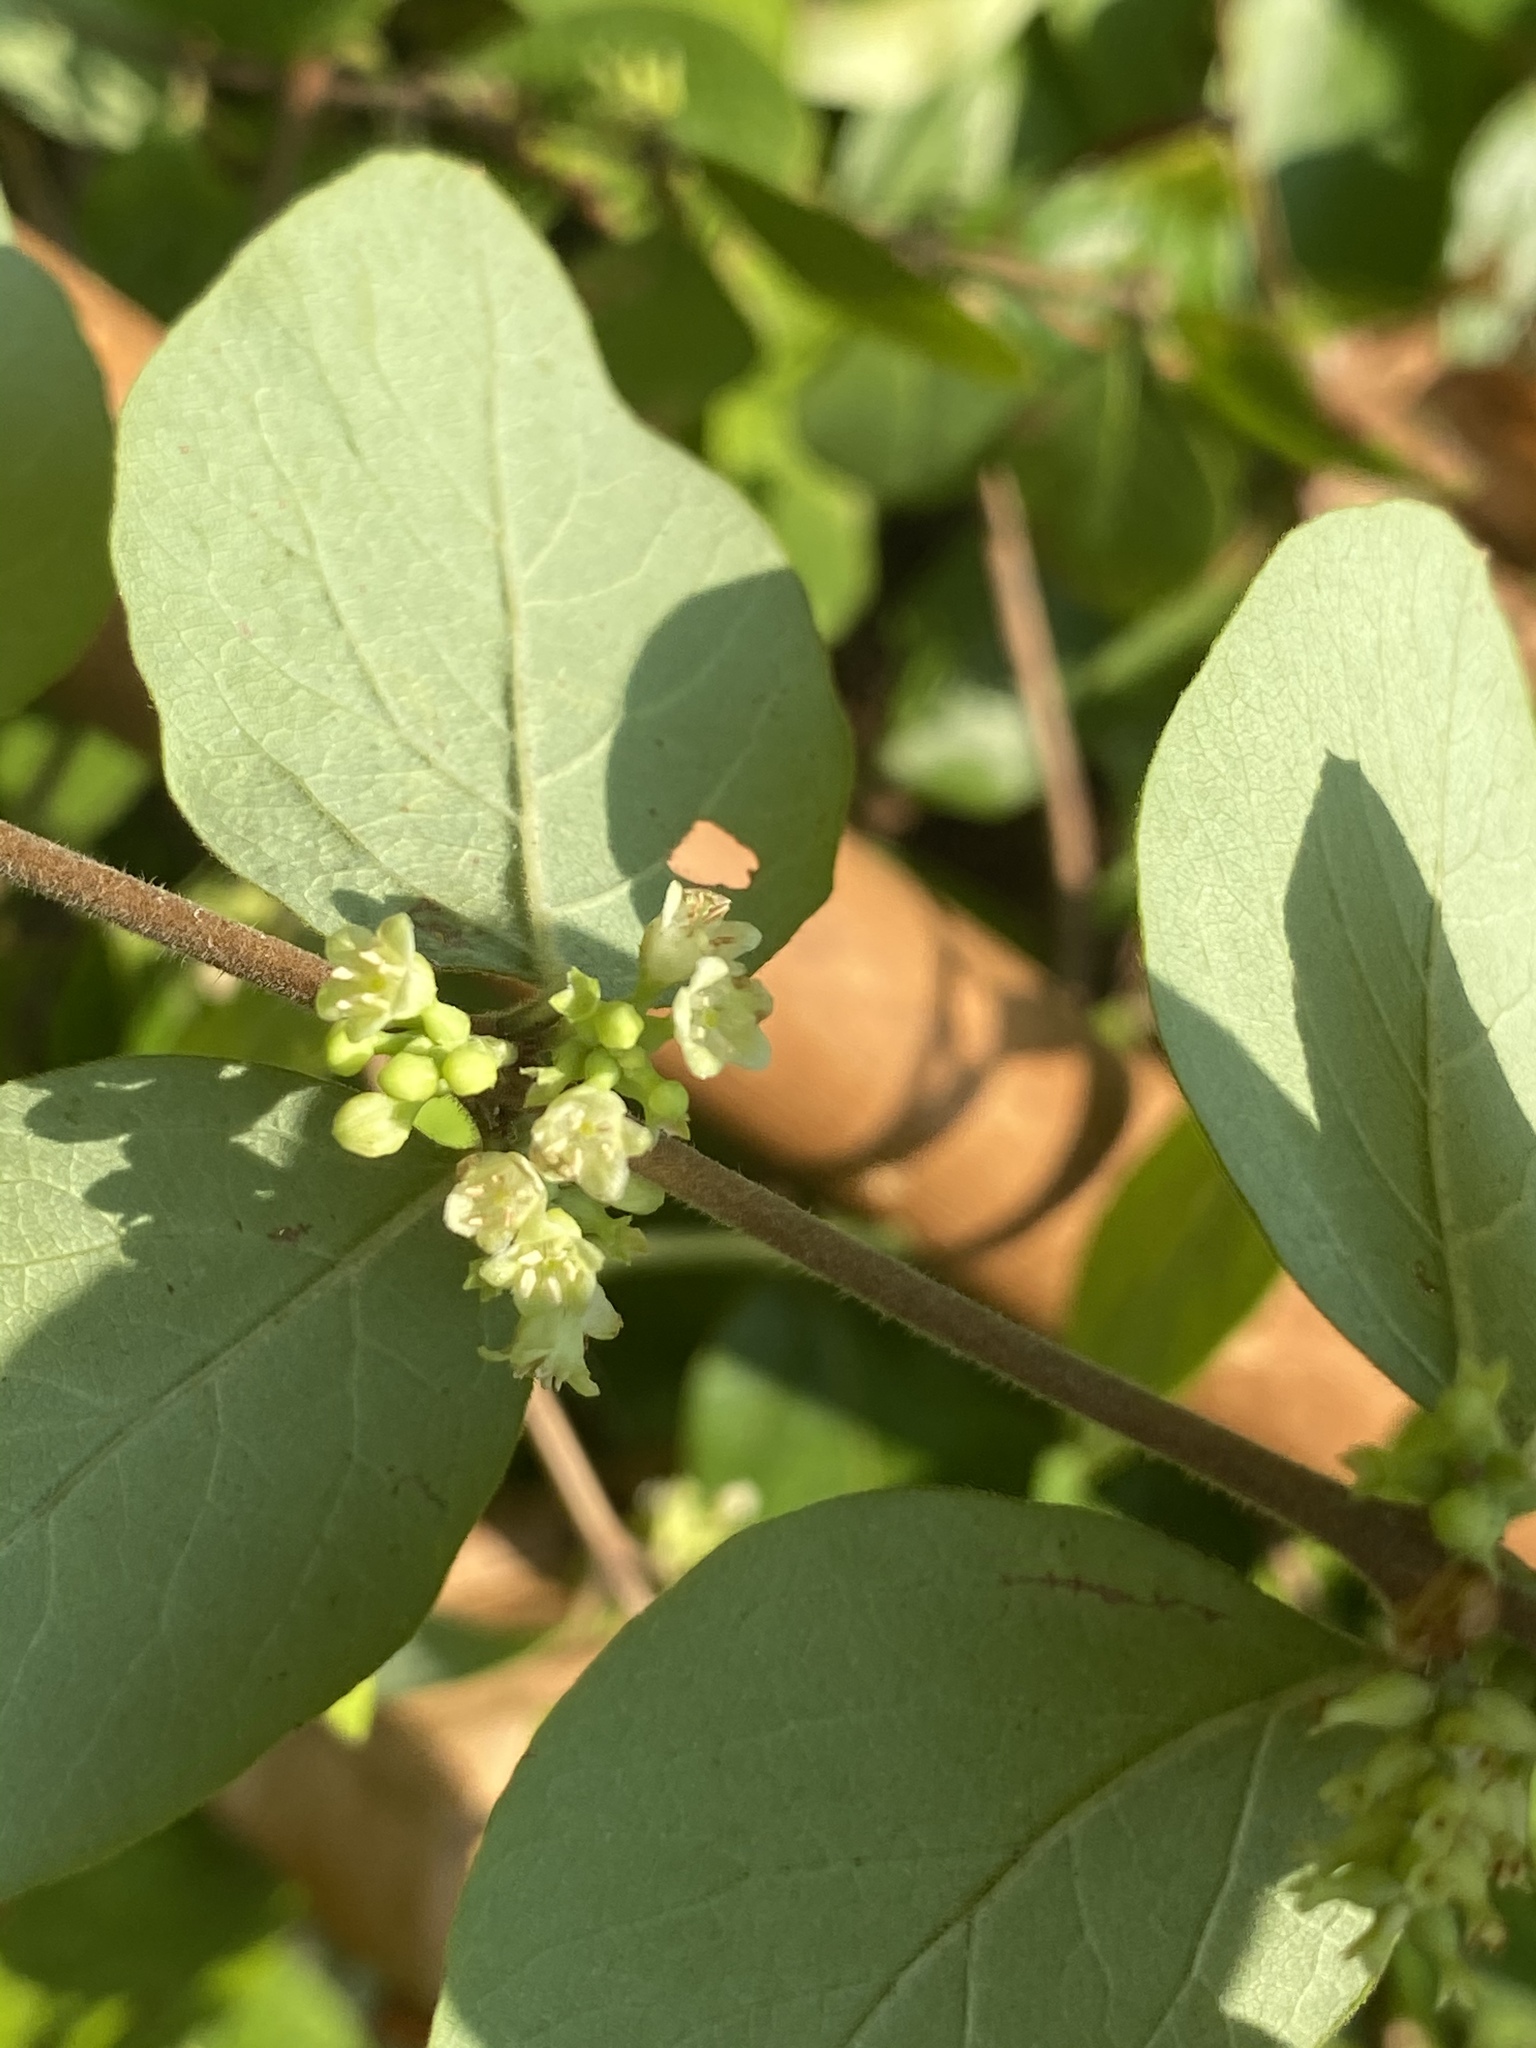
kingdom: Plantae
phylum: Tracheophyta
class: Magnoliopsida
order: Dipsacales
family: Caprifoliaceae
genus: Symphoricarpos
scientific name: Symphoricarpos orbiculatus
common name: Coralberry
